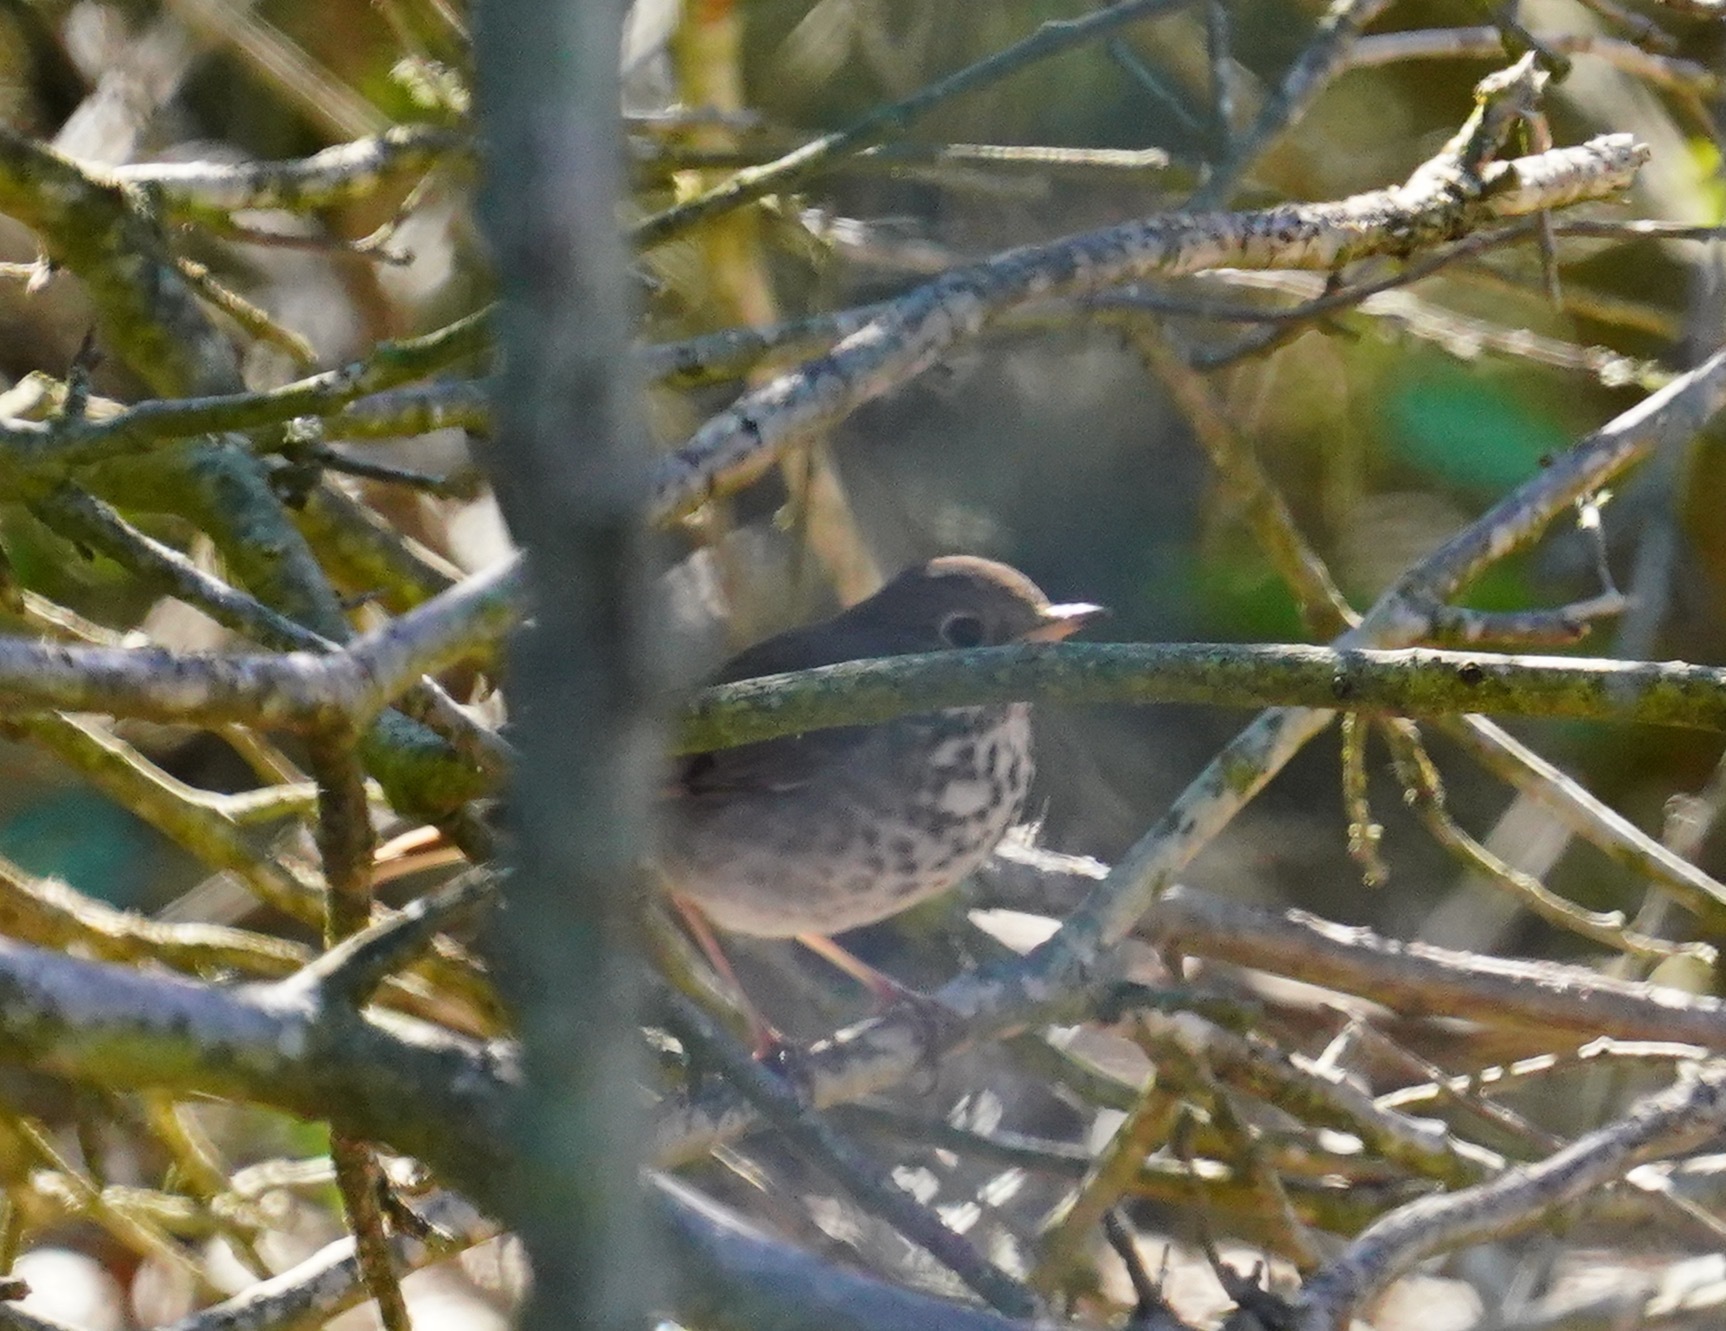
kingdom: Animalia
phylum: Chordata
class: Aves
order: Passeriformes
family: Turdidae
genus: Catharus
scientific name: Catharus guttatus
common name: Hermit thrush
